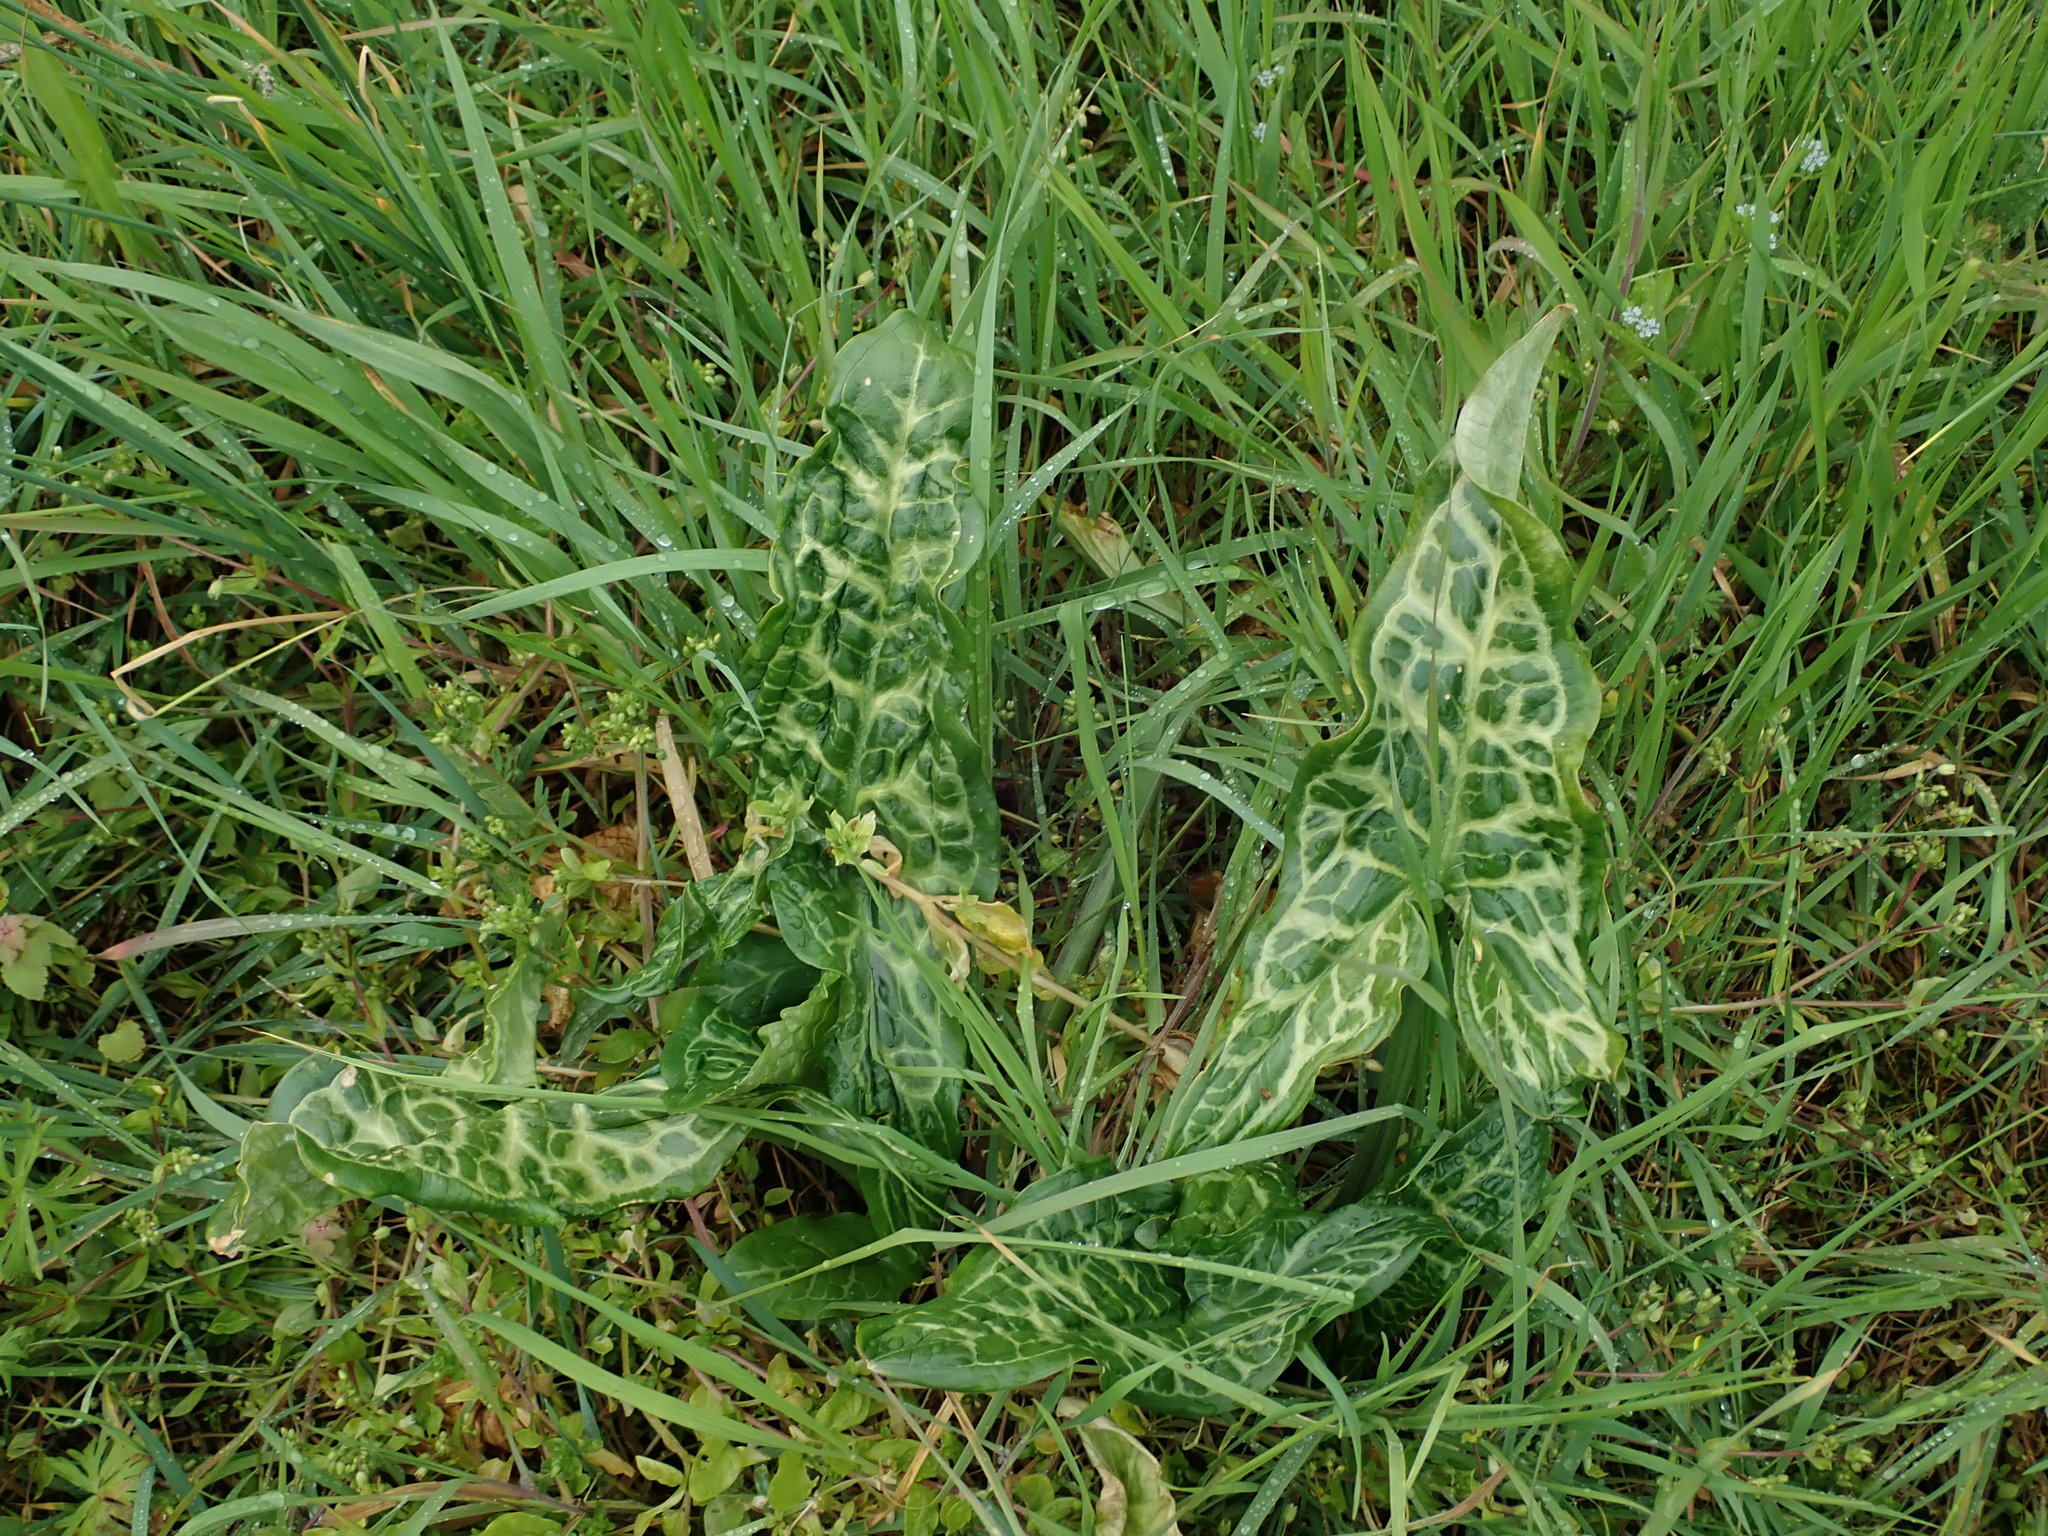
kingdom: Plantae
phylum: Tracheophyta
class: Liliopsida
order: Alismatales
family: Araceae
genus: Arum
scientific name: Arum italicum
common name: Italian lords-and-ladies
